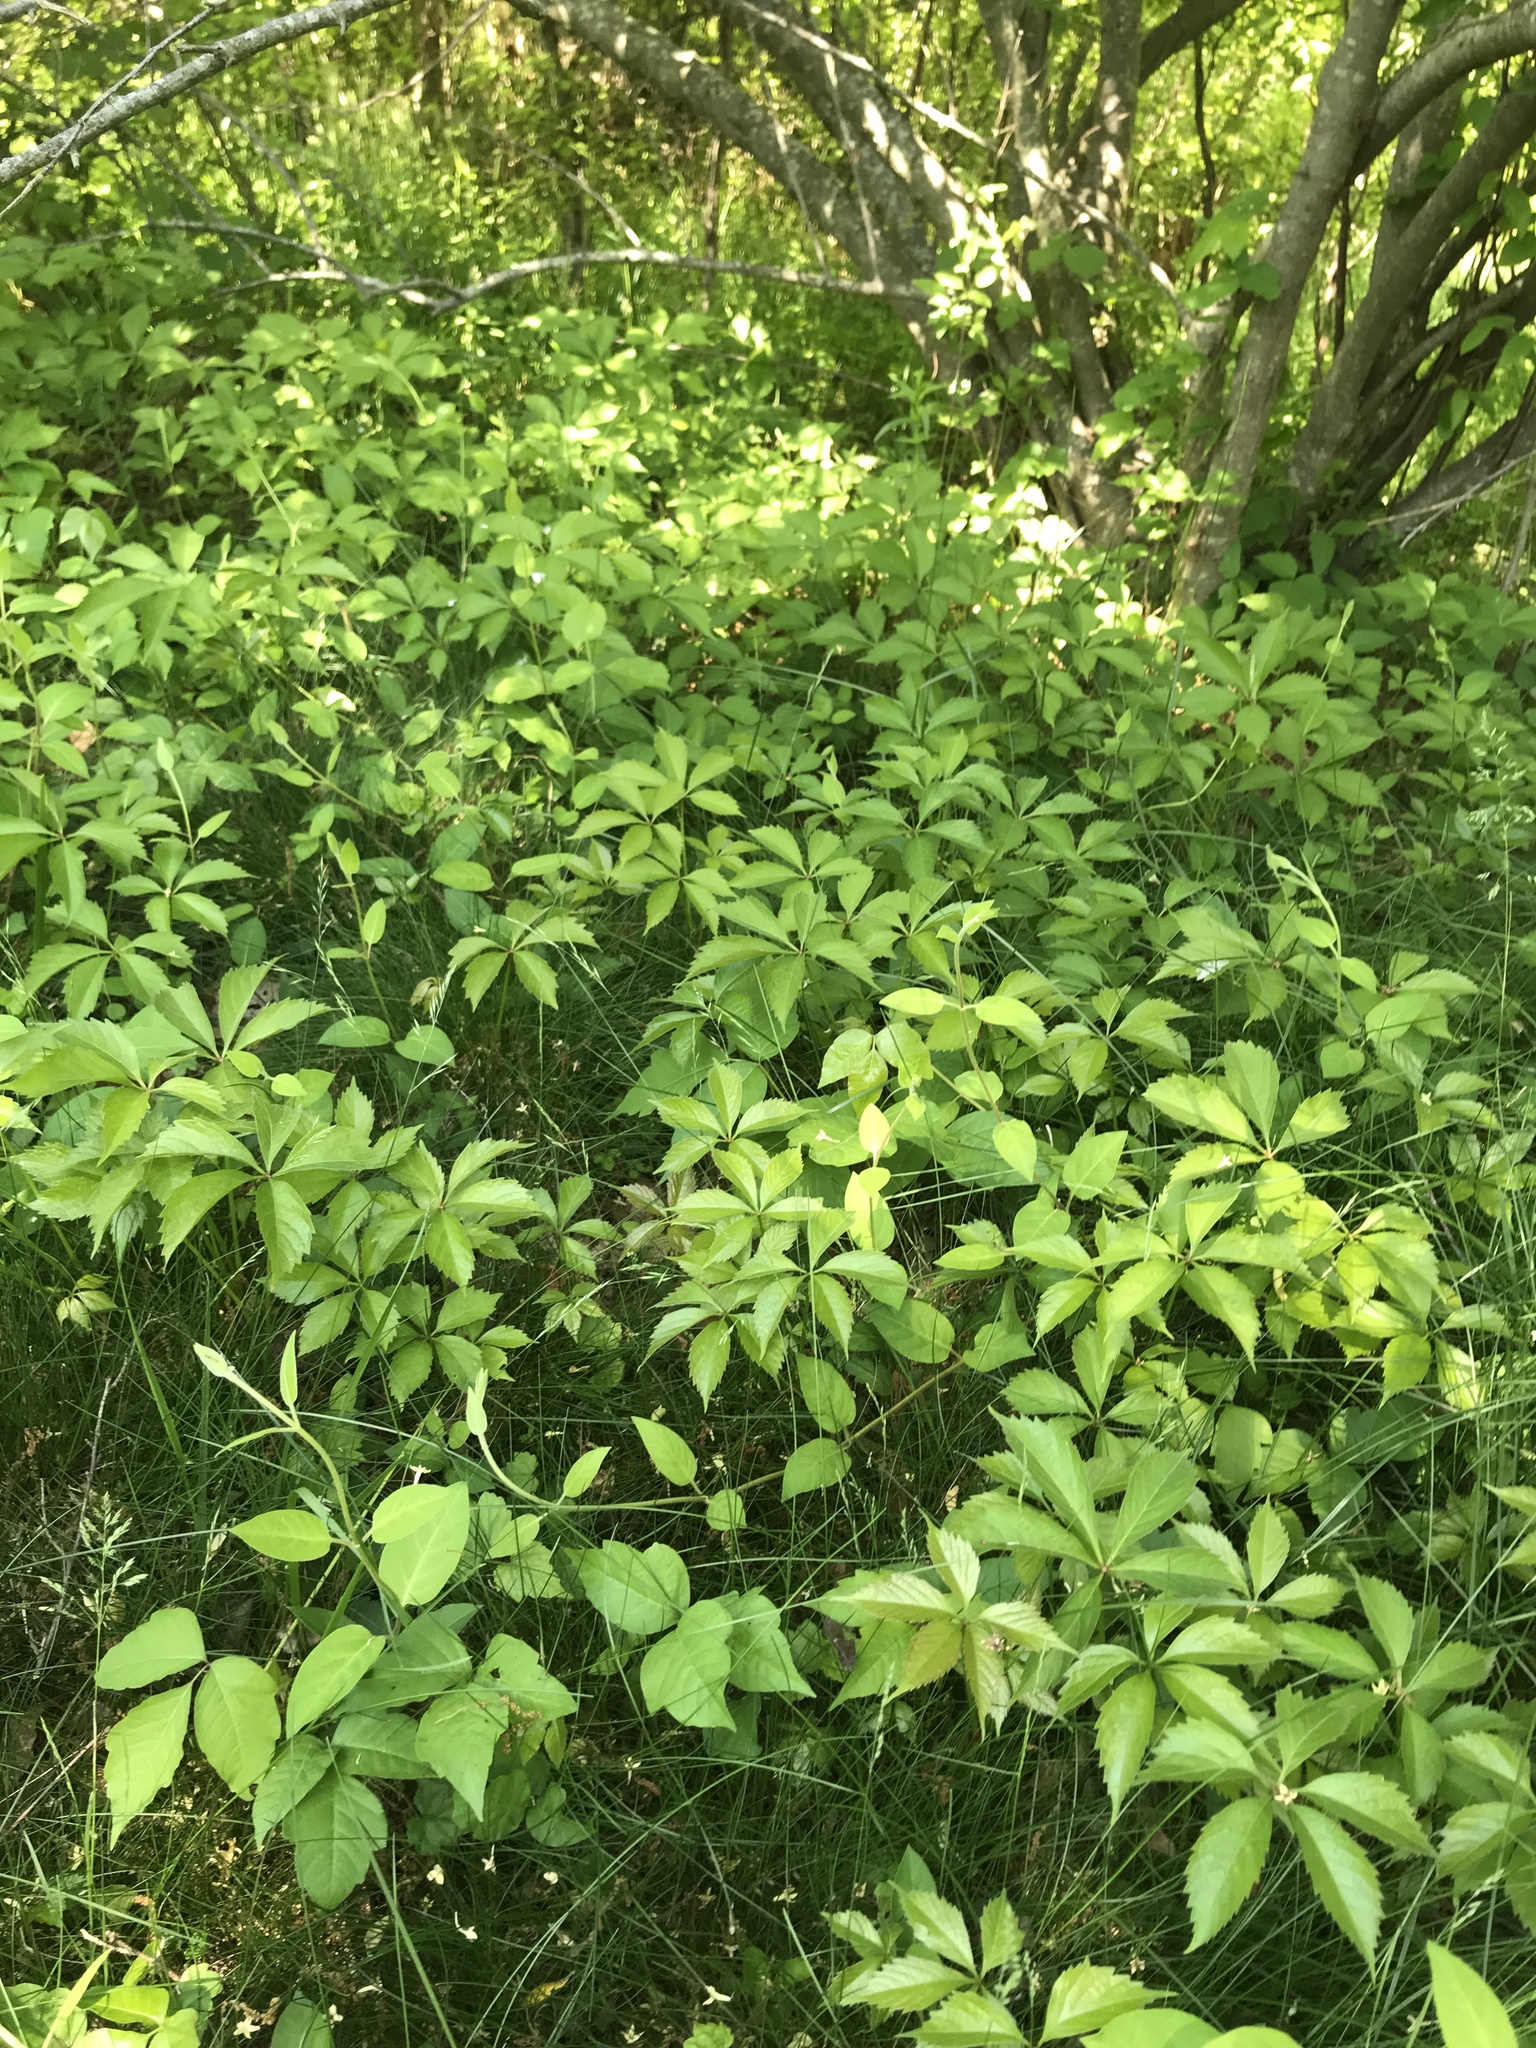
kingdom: Plantae
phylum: Tracheophyta
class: Magnoliopsida
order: Vitales
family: Vitaceae
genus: Parthenocissus
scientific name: Parthenocissus quinquefolia
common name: Virginia-creeper
